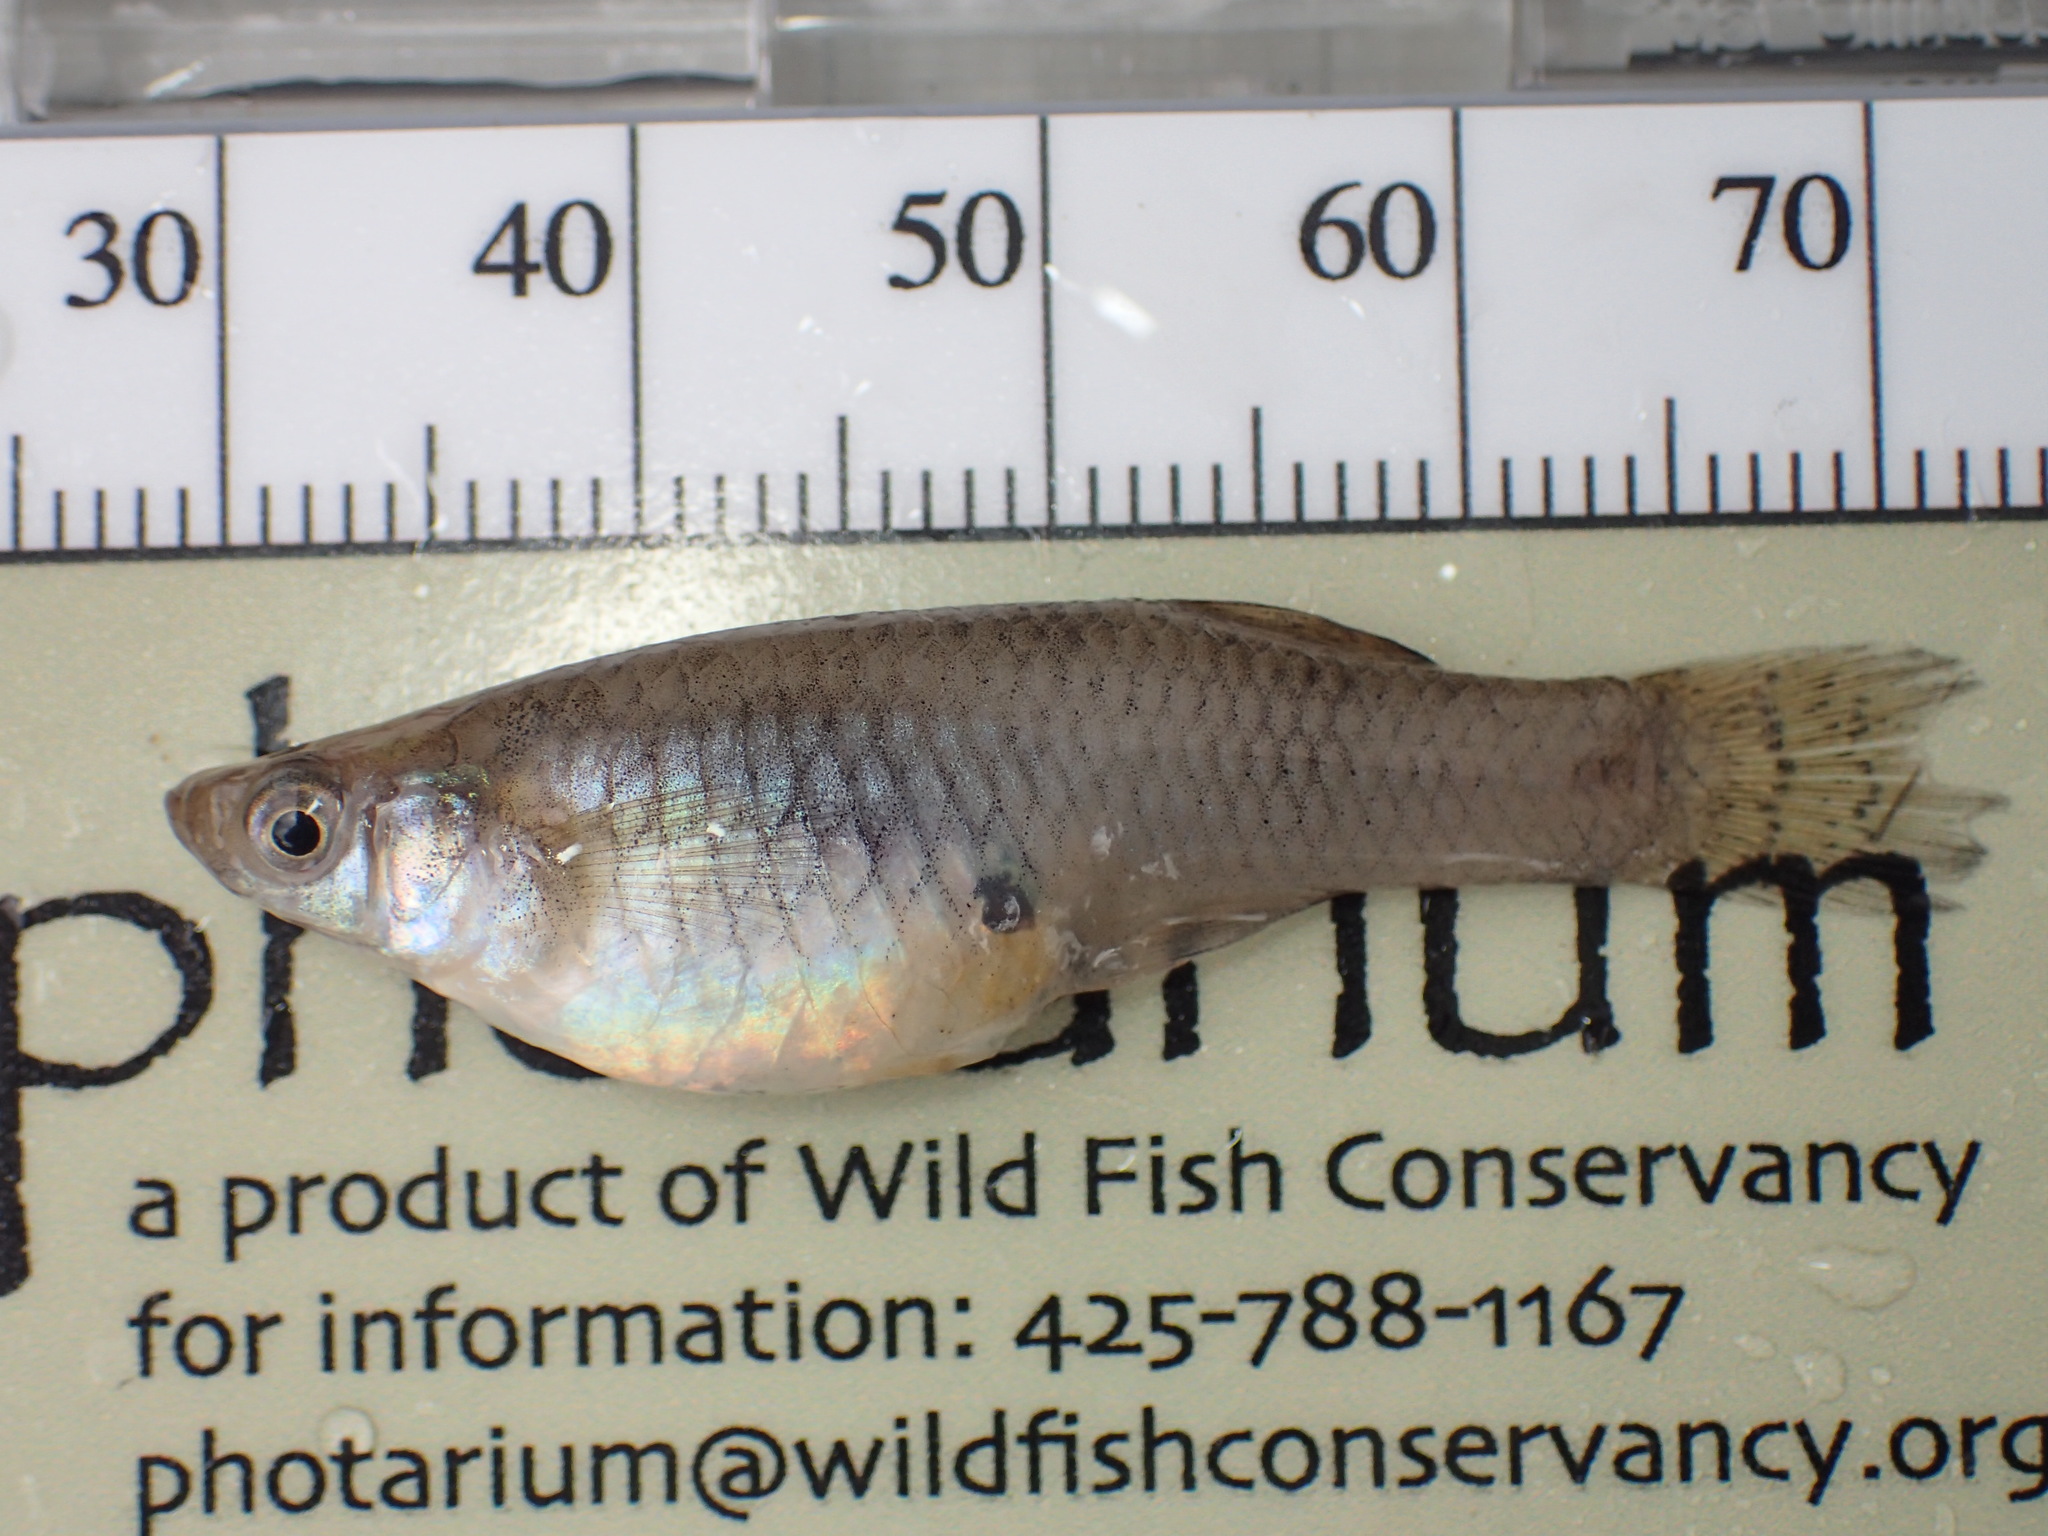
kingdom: Animalia
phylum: Chordata
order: Cyprinodontiformes
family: Poeciliidae
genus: Gambusia
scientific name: Gambusia affinis
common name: Mosquitofish
